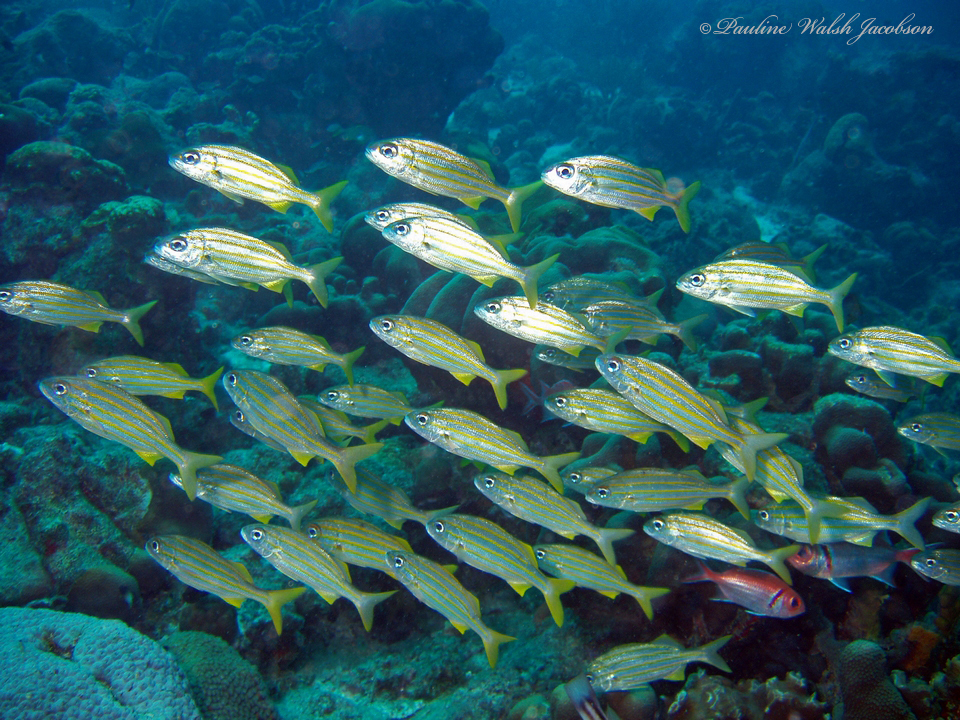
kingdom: Animalia
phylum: Chordata
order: Perciformes
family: Haemulidae
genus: Haemulon
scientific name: Haemulon chrysargyreum
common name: Smallmouth grunt
